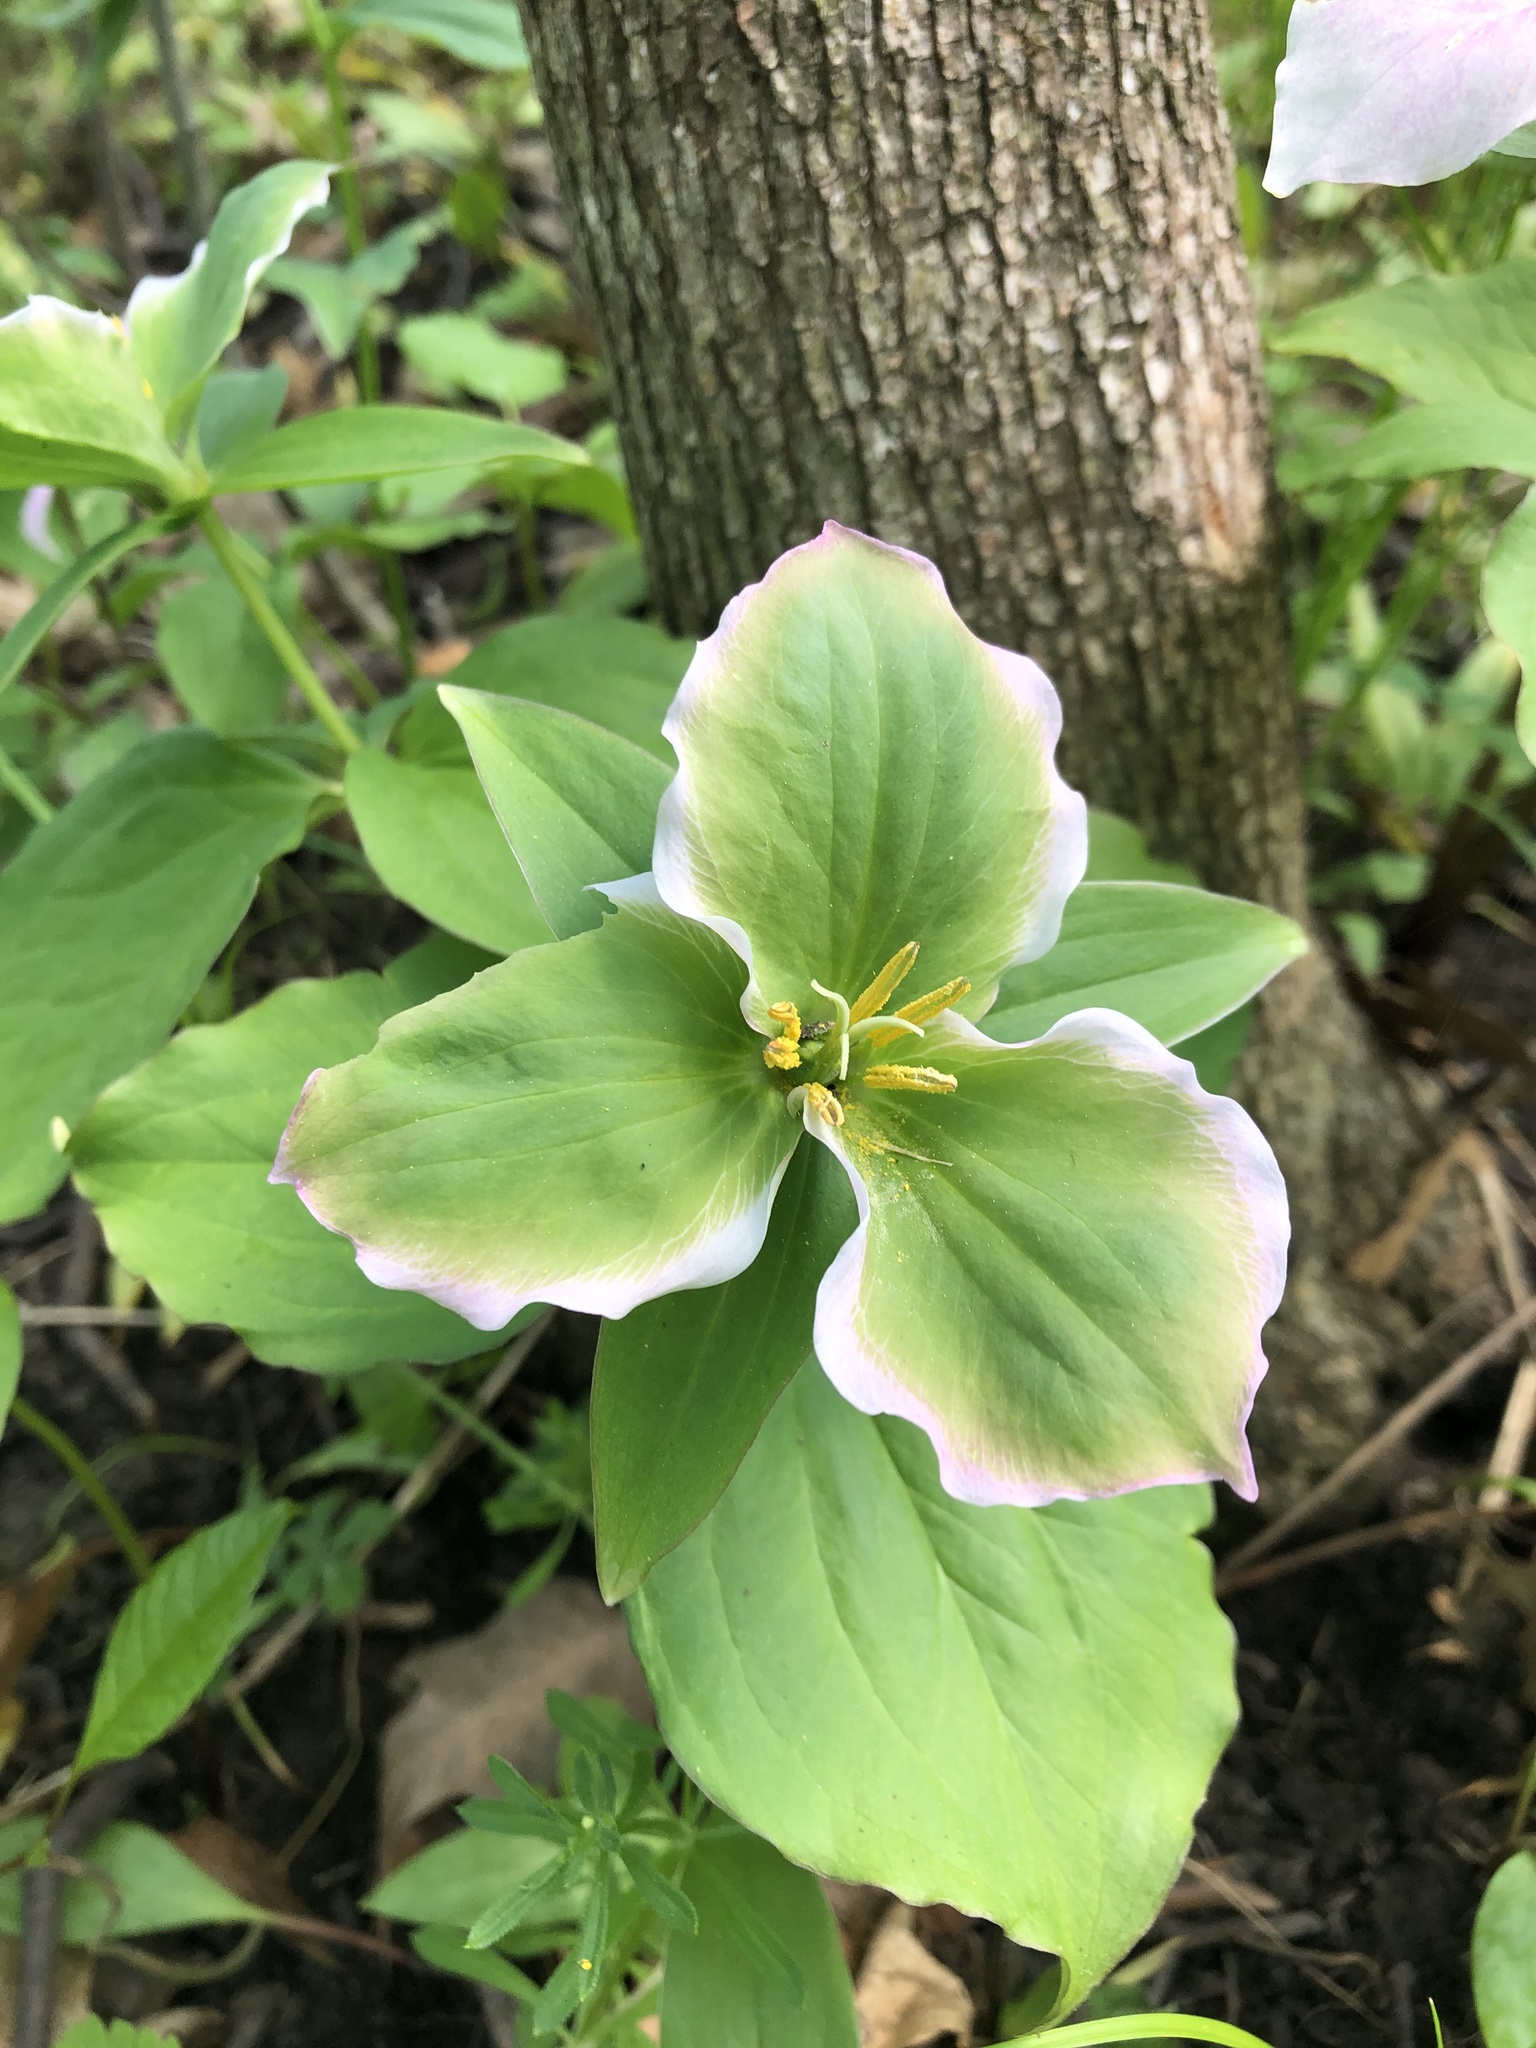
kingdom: Plantae
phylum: Tracheophyta
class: Liliopsida
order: Liliales
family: Melanthiaceae
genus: Trillium
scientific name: Trillium grandiflorum
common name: Great white trillium
